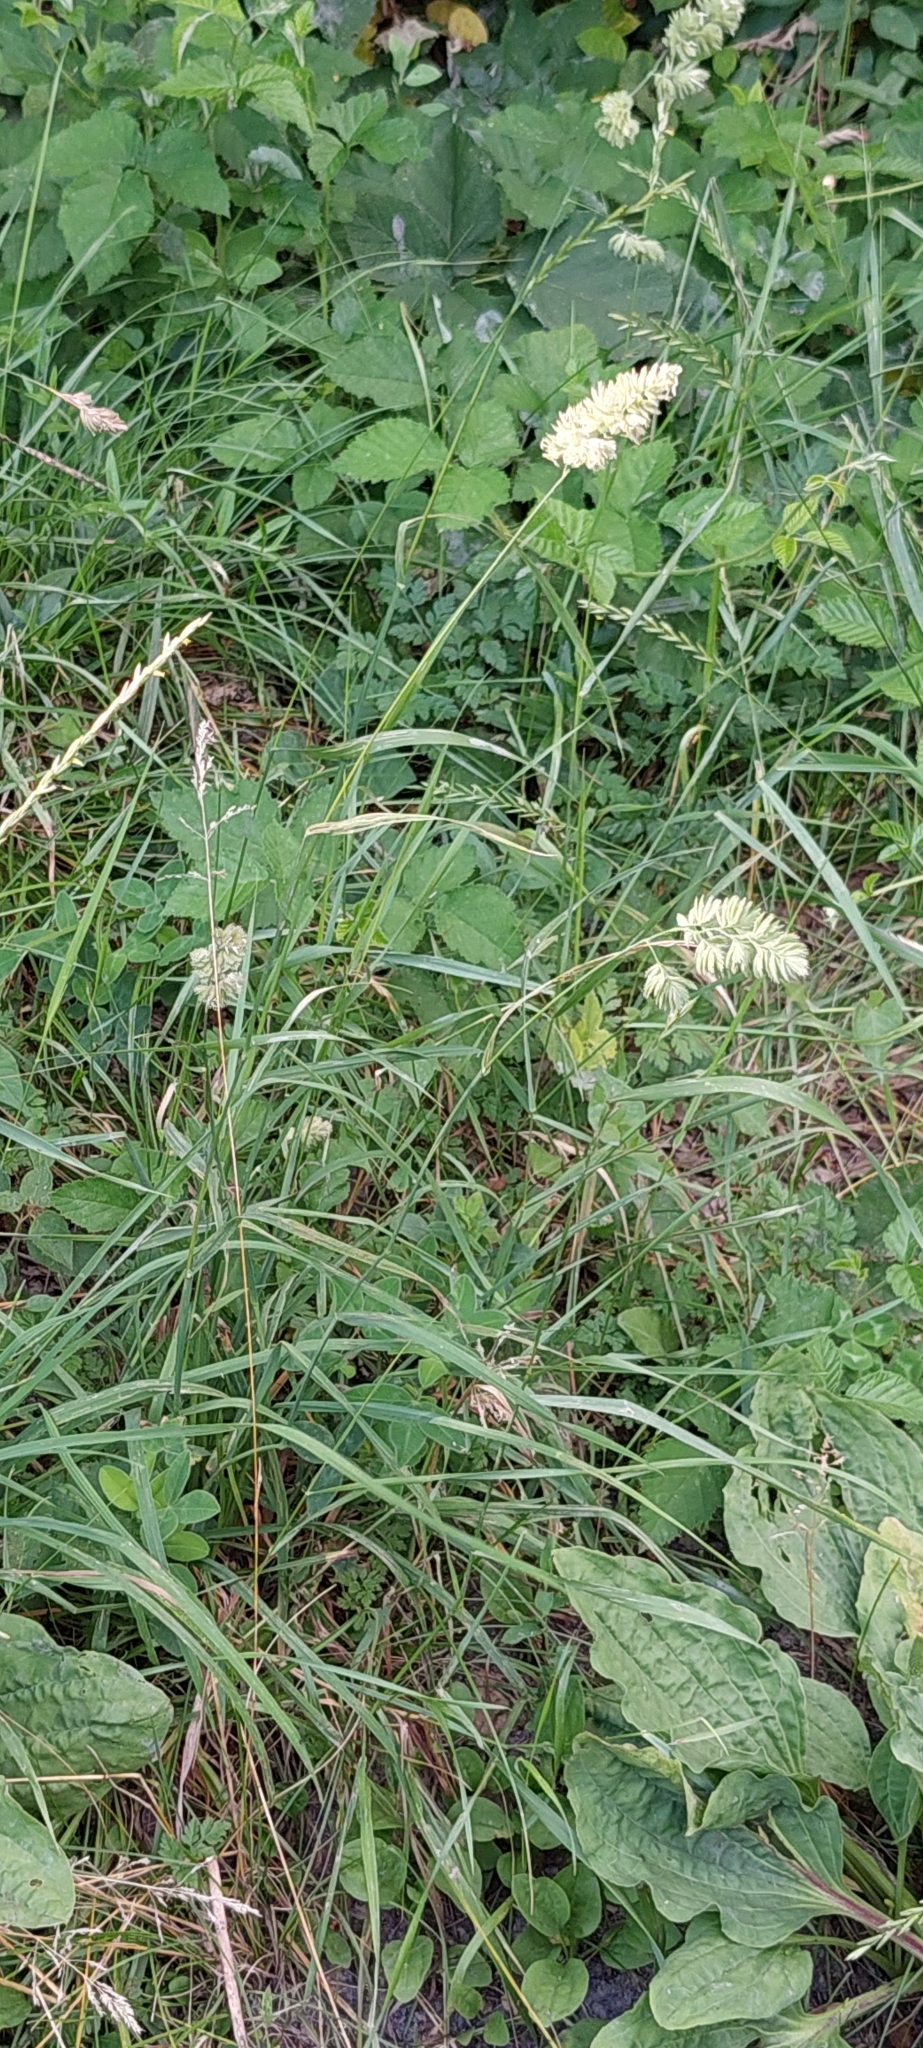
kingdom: Plantae
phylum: Tracheophyta
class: Liliopsida
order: Poales
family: Poaceae
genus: Dactylis
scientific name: Dactylis glomerata
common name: Orchardgrass
